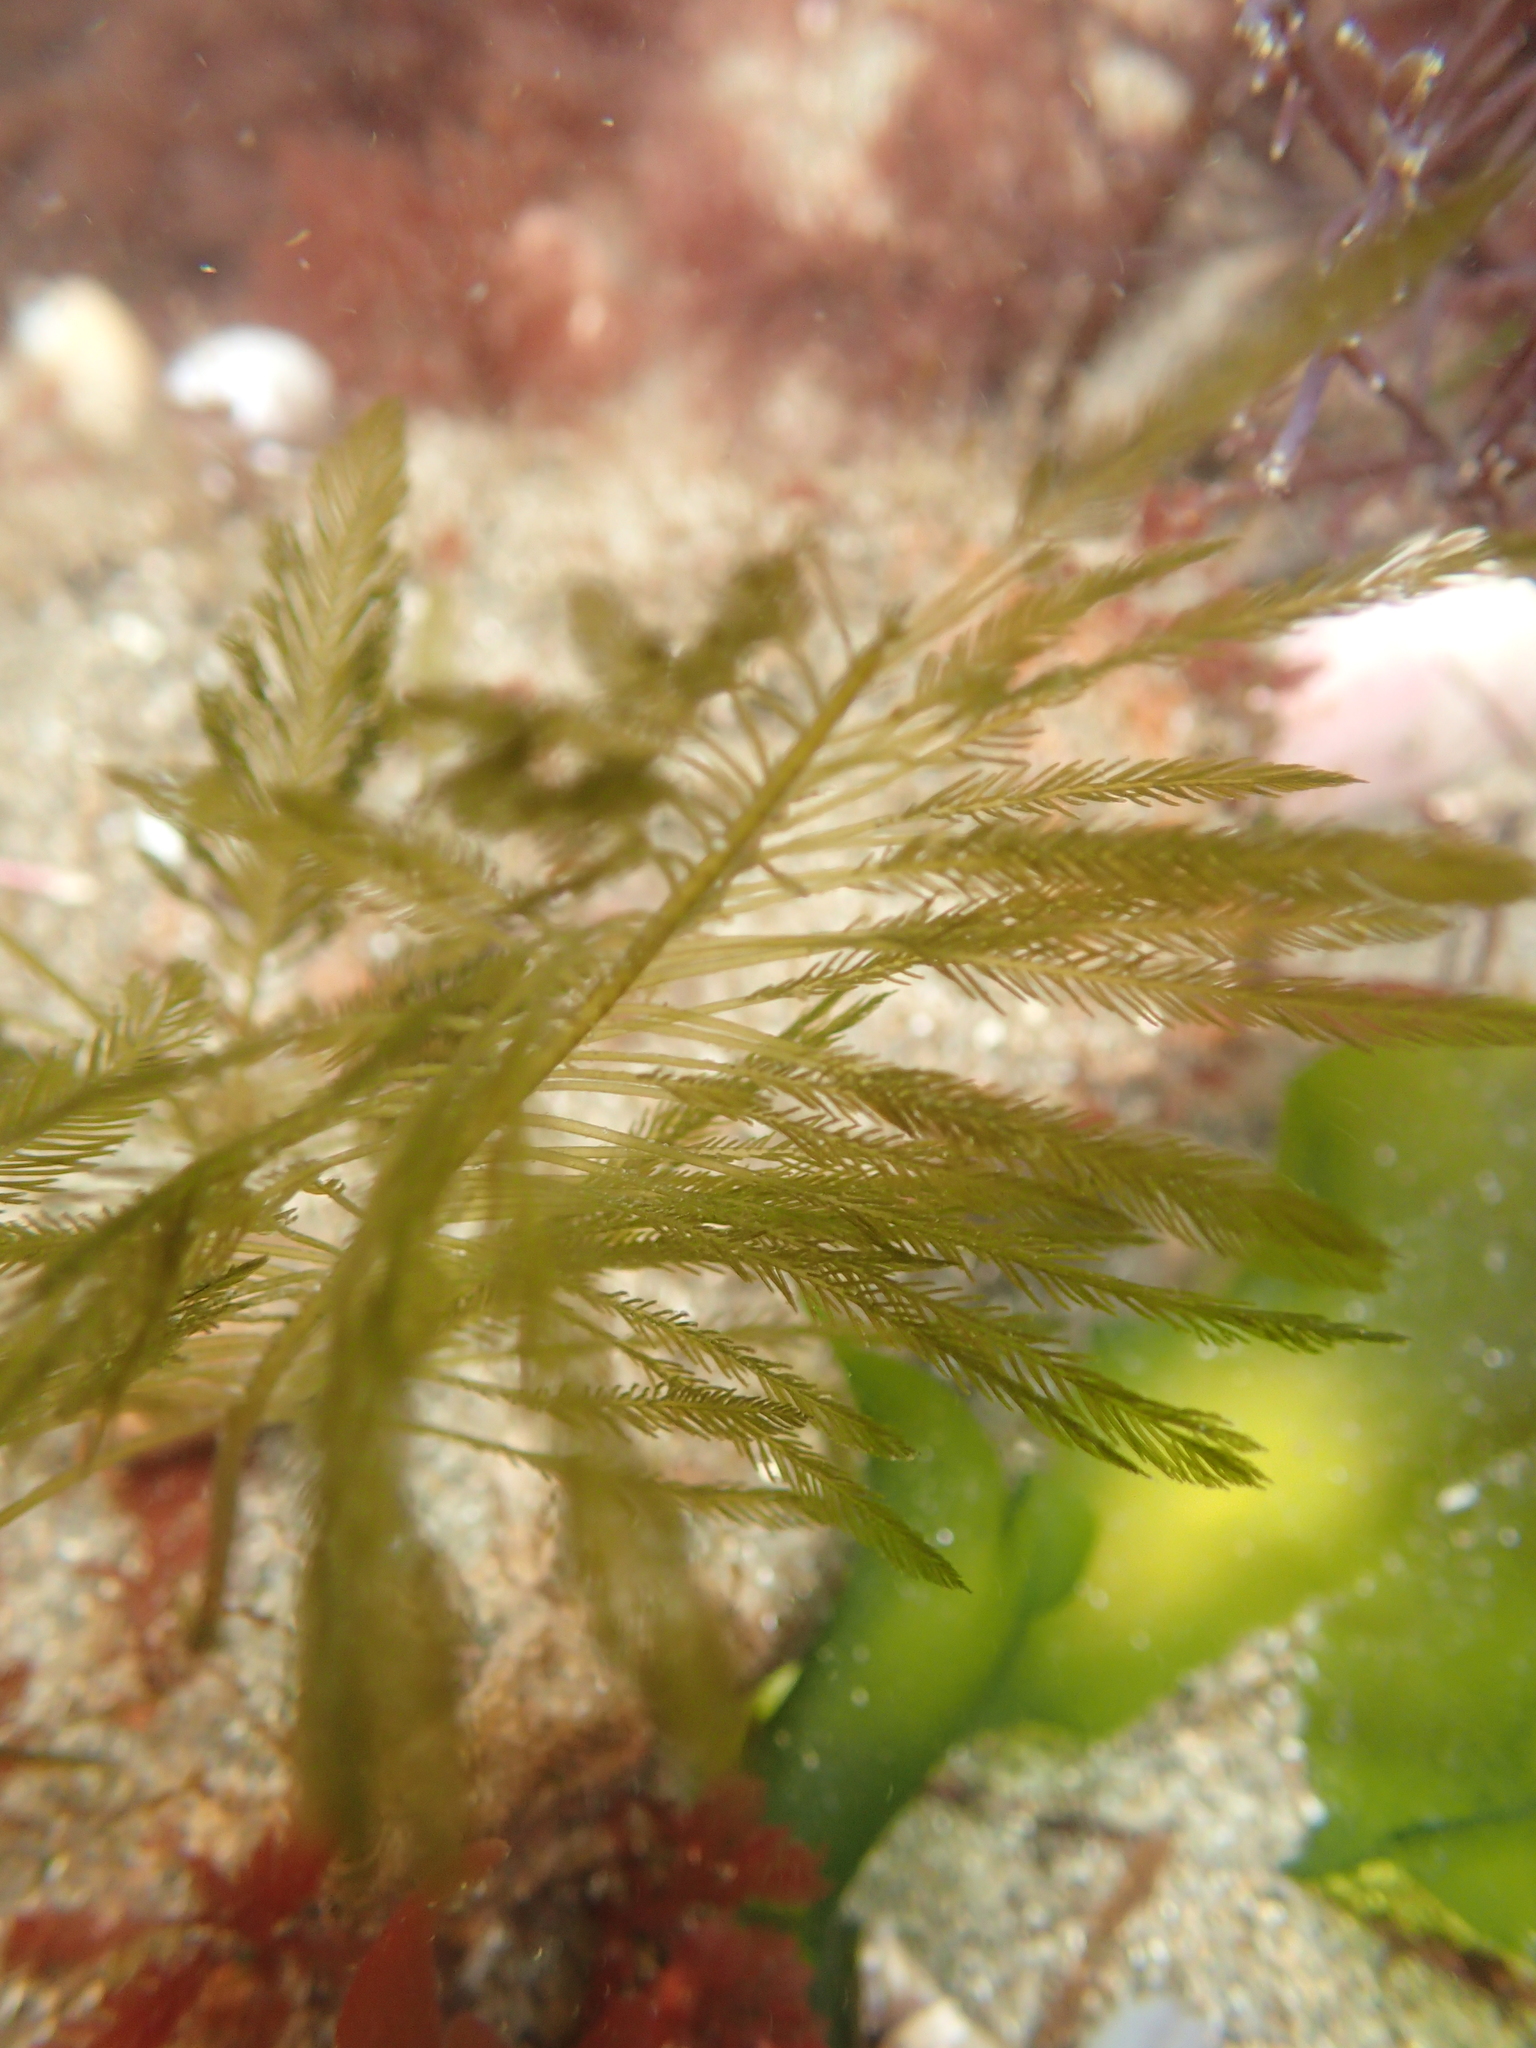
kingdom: Plantae
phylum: Chlorophyta
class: Ulvophyceae
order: Bryopsidales
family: Bryopsidaceae
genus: Bryopsis
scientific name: Bryopsis corticulans
